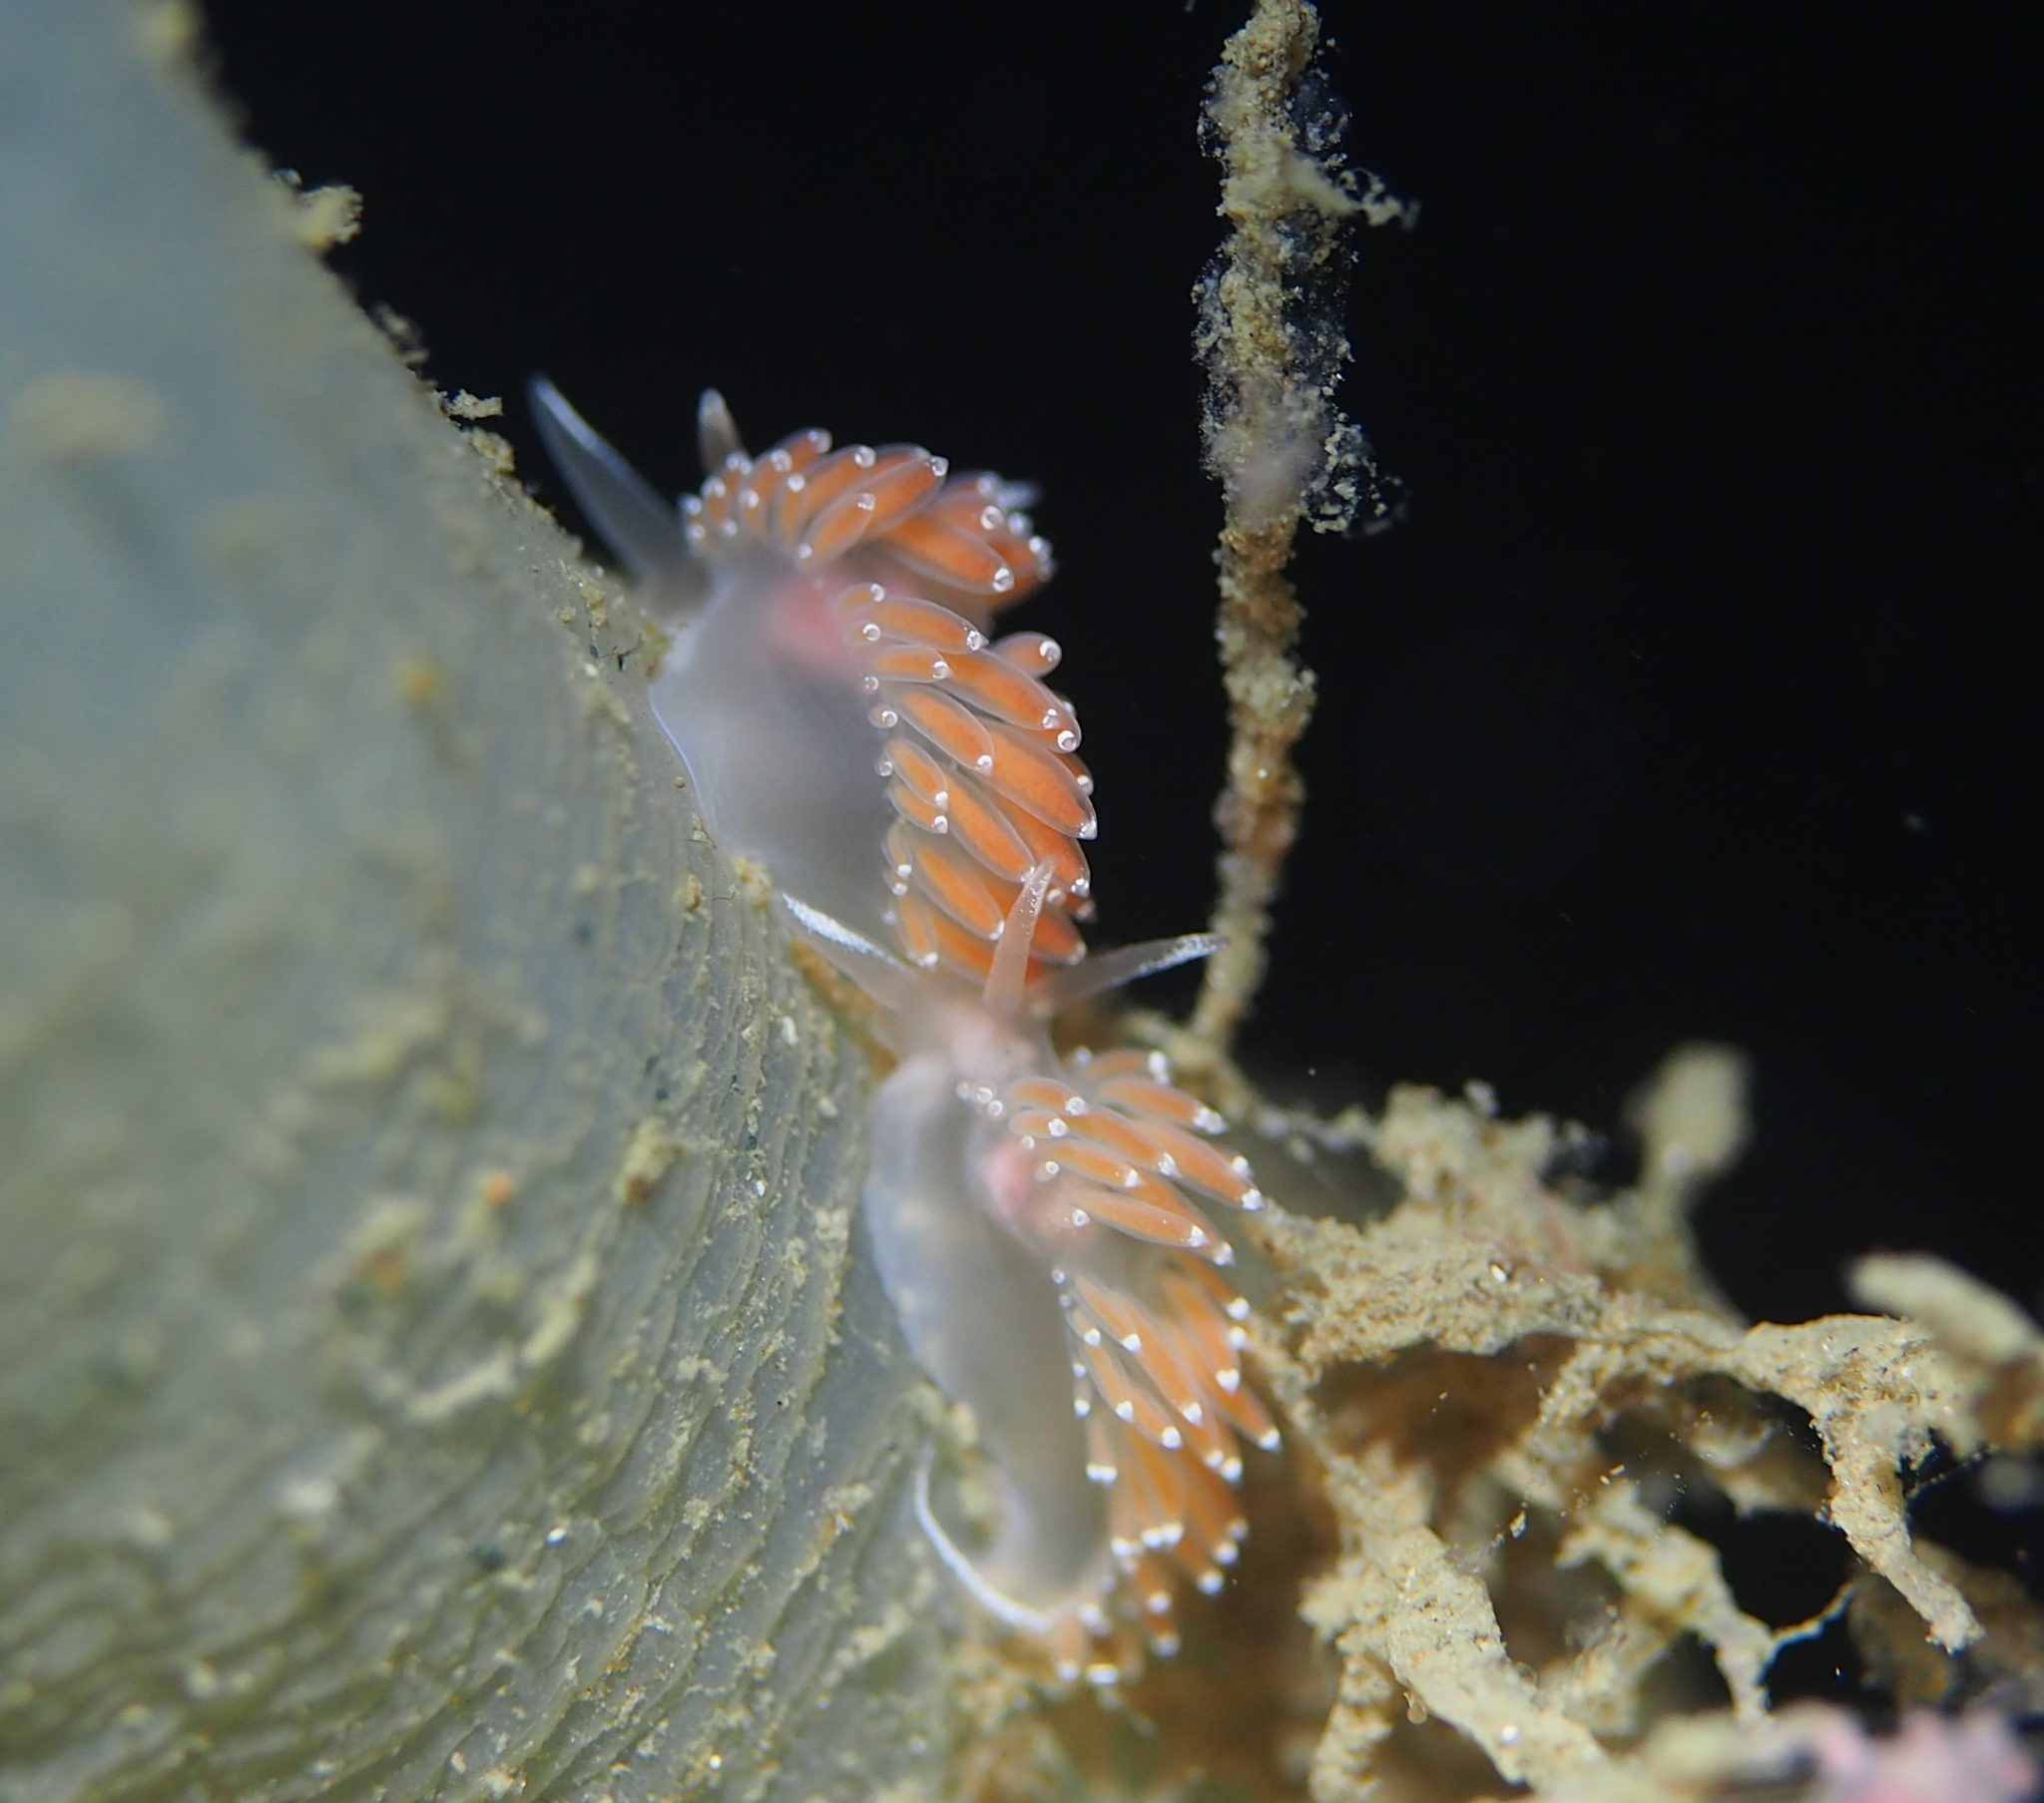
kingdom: Animalia
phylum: Mollusca
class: Gastropoda
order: Nudibranchia
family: Coryphellidae
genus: Coryphella
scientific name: Coryphella verrucosa
